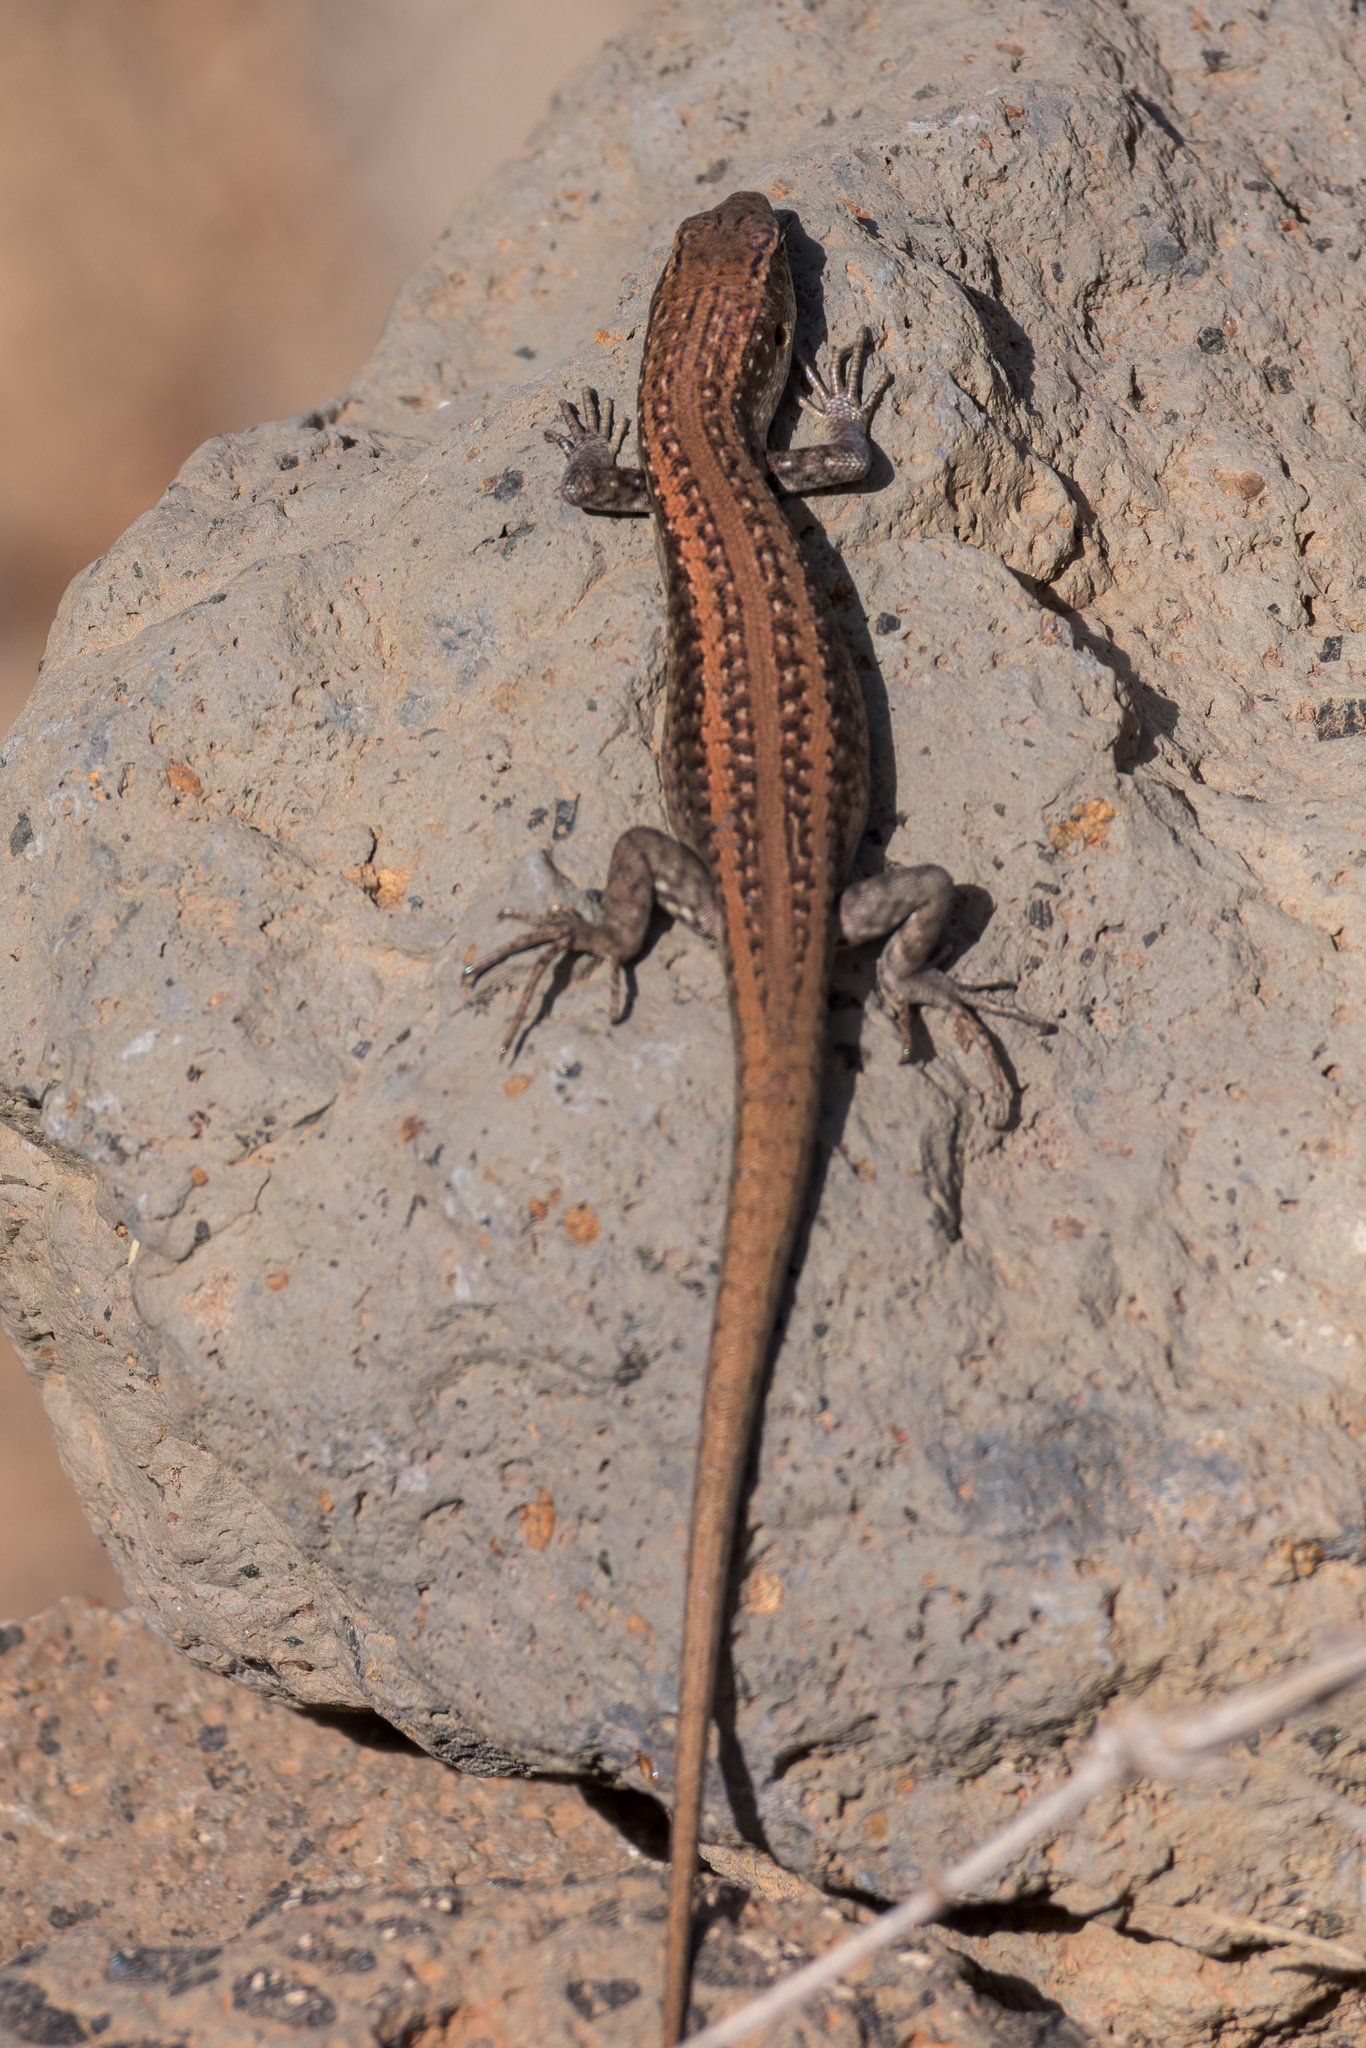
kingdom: Animalia
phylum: Chordata
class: Squamata
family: Scincidae
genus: Chioninia
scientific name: Chioninia fogoensis
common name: Fogo's mabuya
